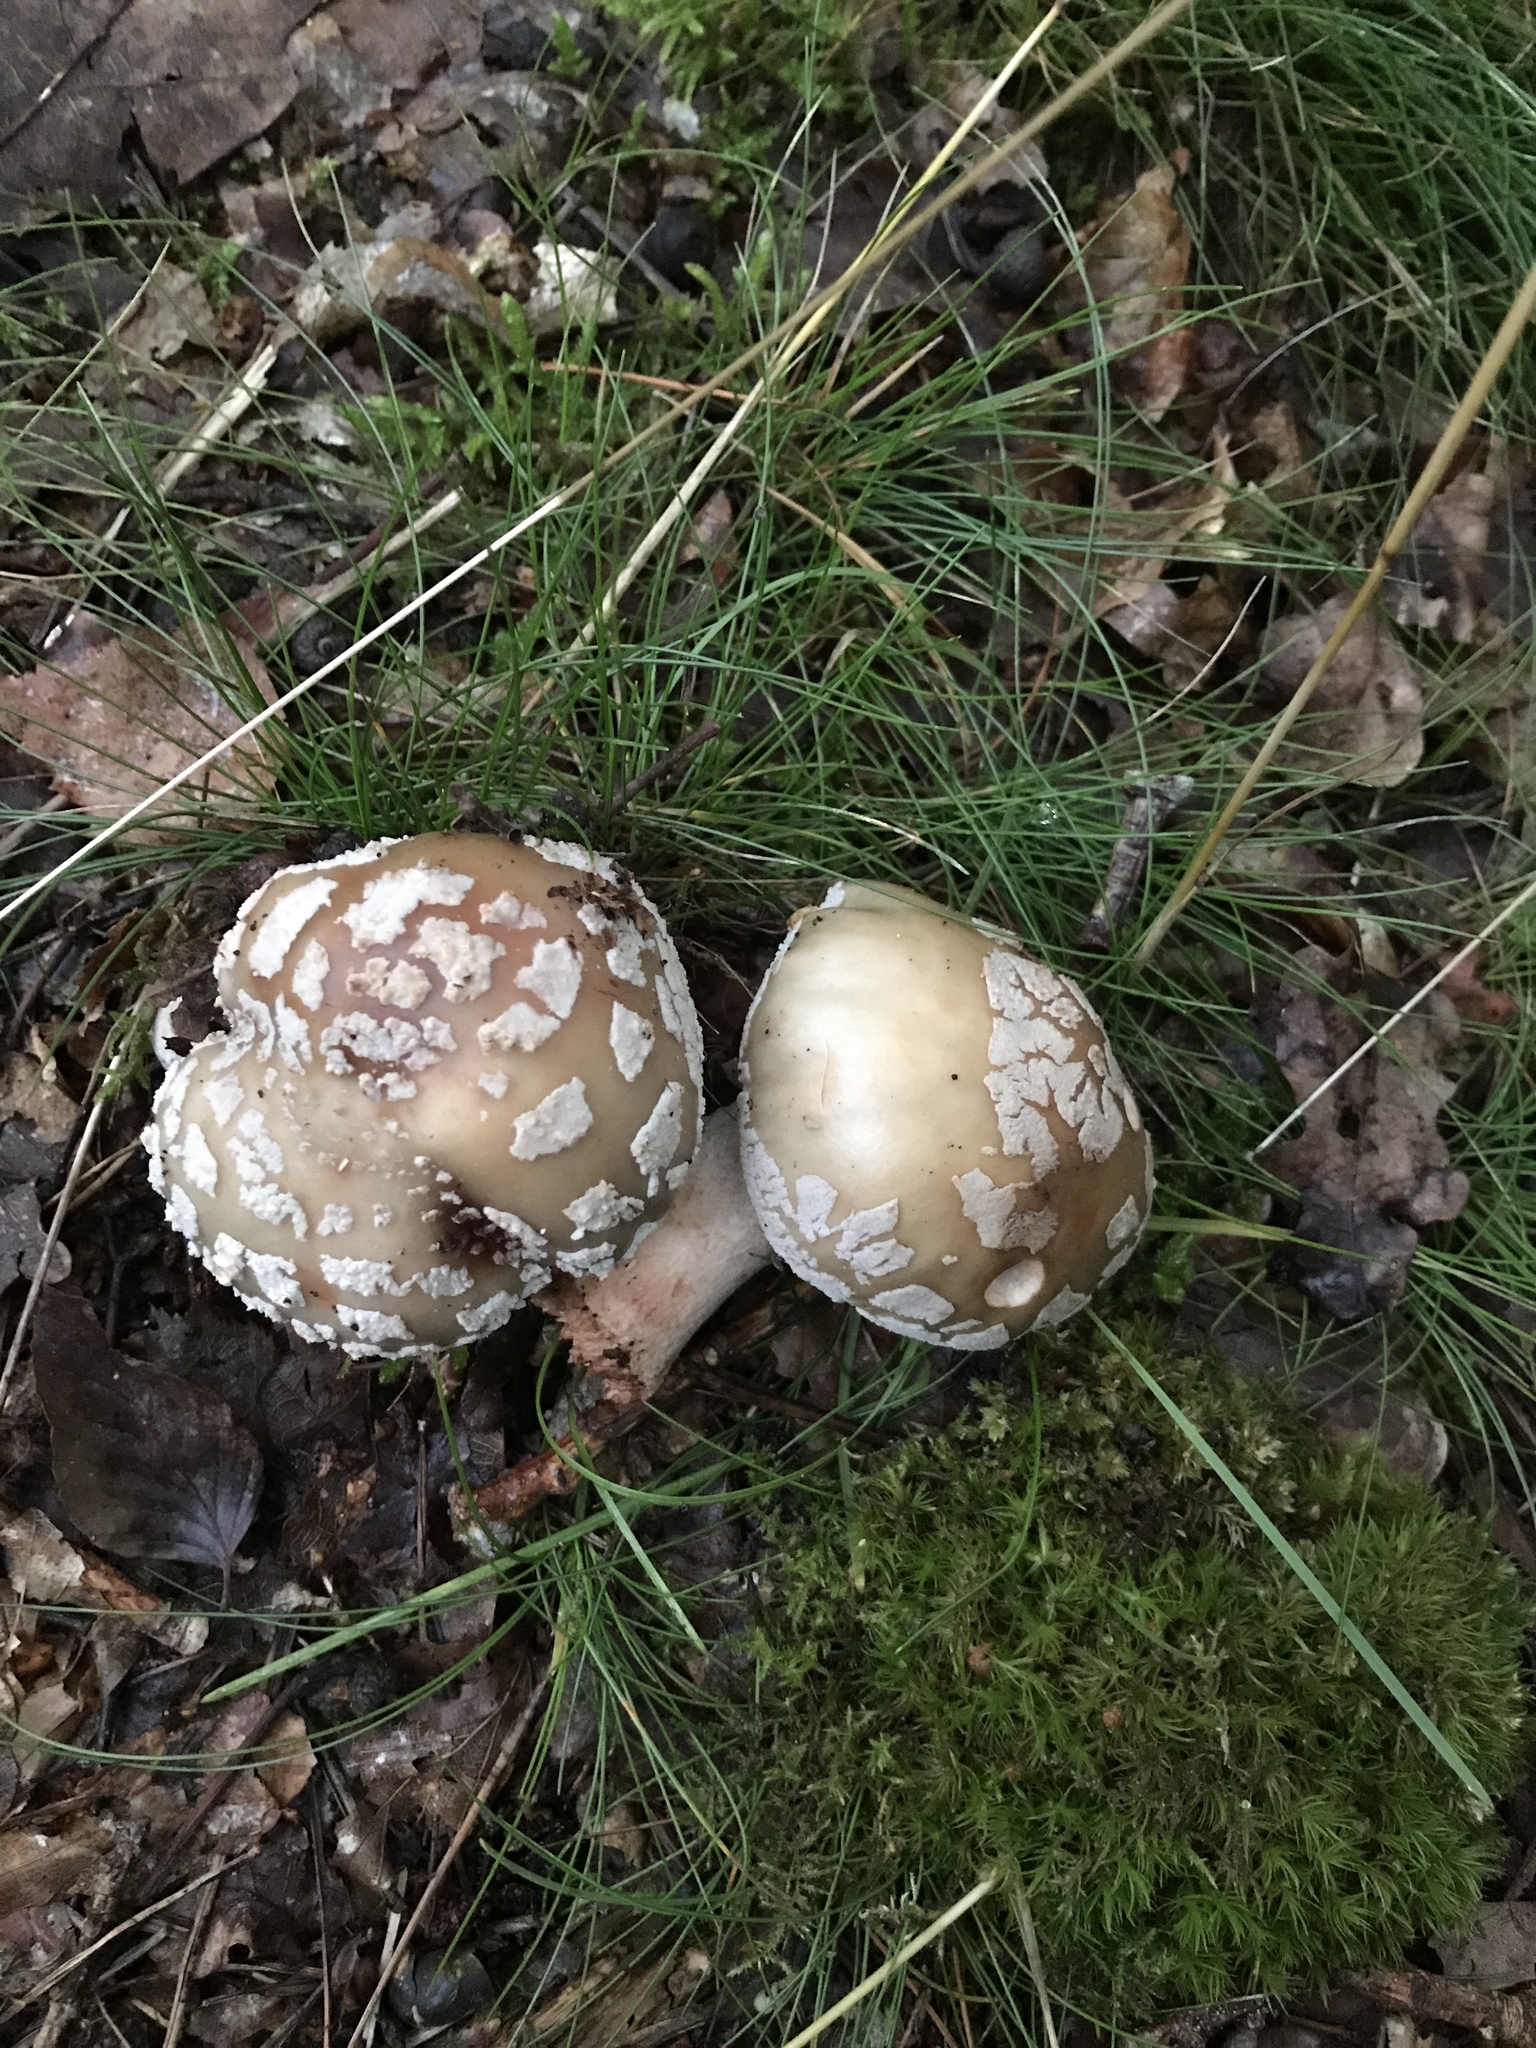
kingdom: Fungi
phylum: Basidiomycota
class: Agaricomycetes
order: Agaricales
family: Amanitaceae
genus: Amanita
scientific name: Amanita rubescens
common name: Blusher
